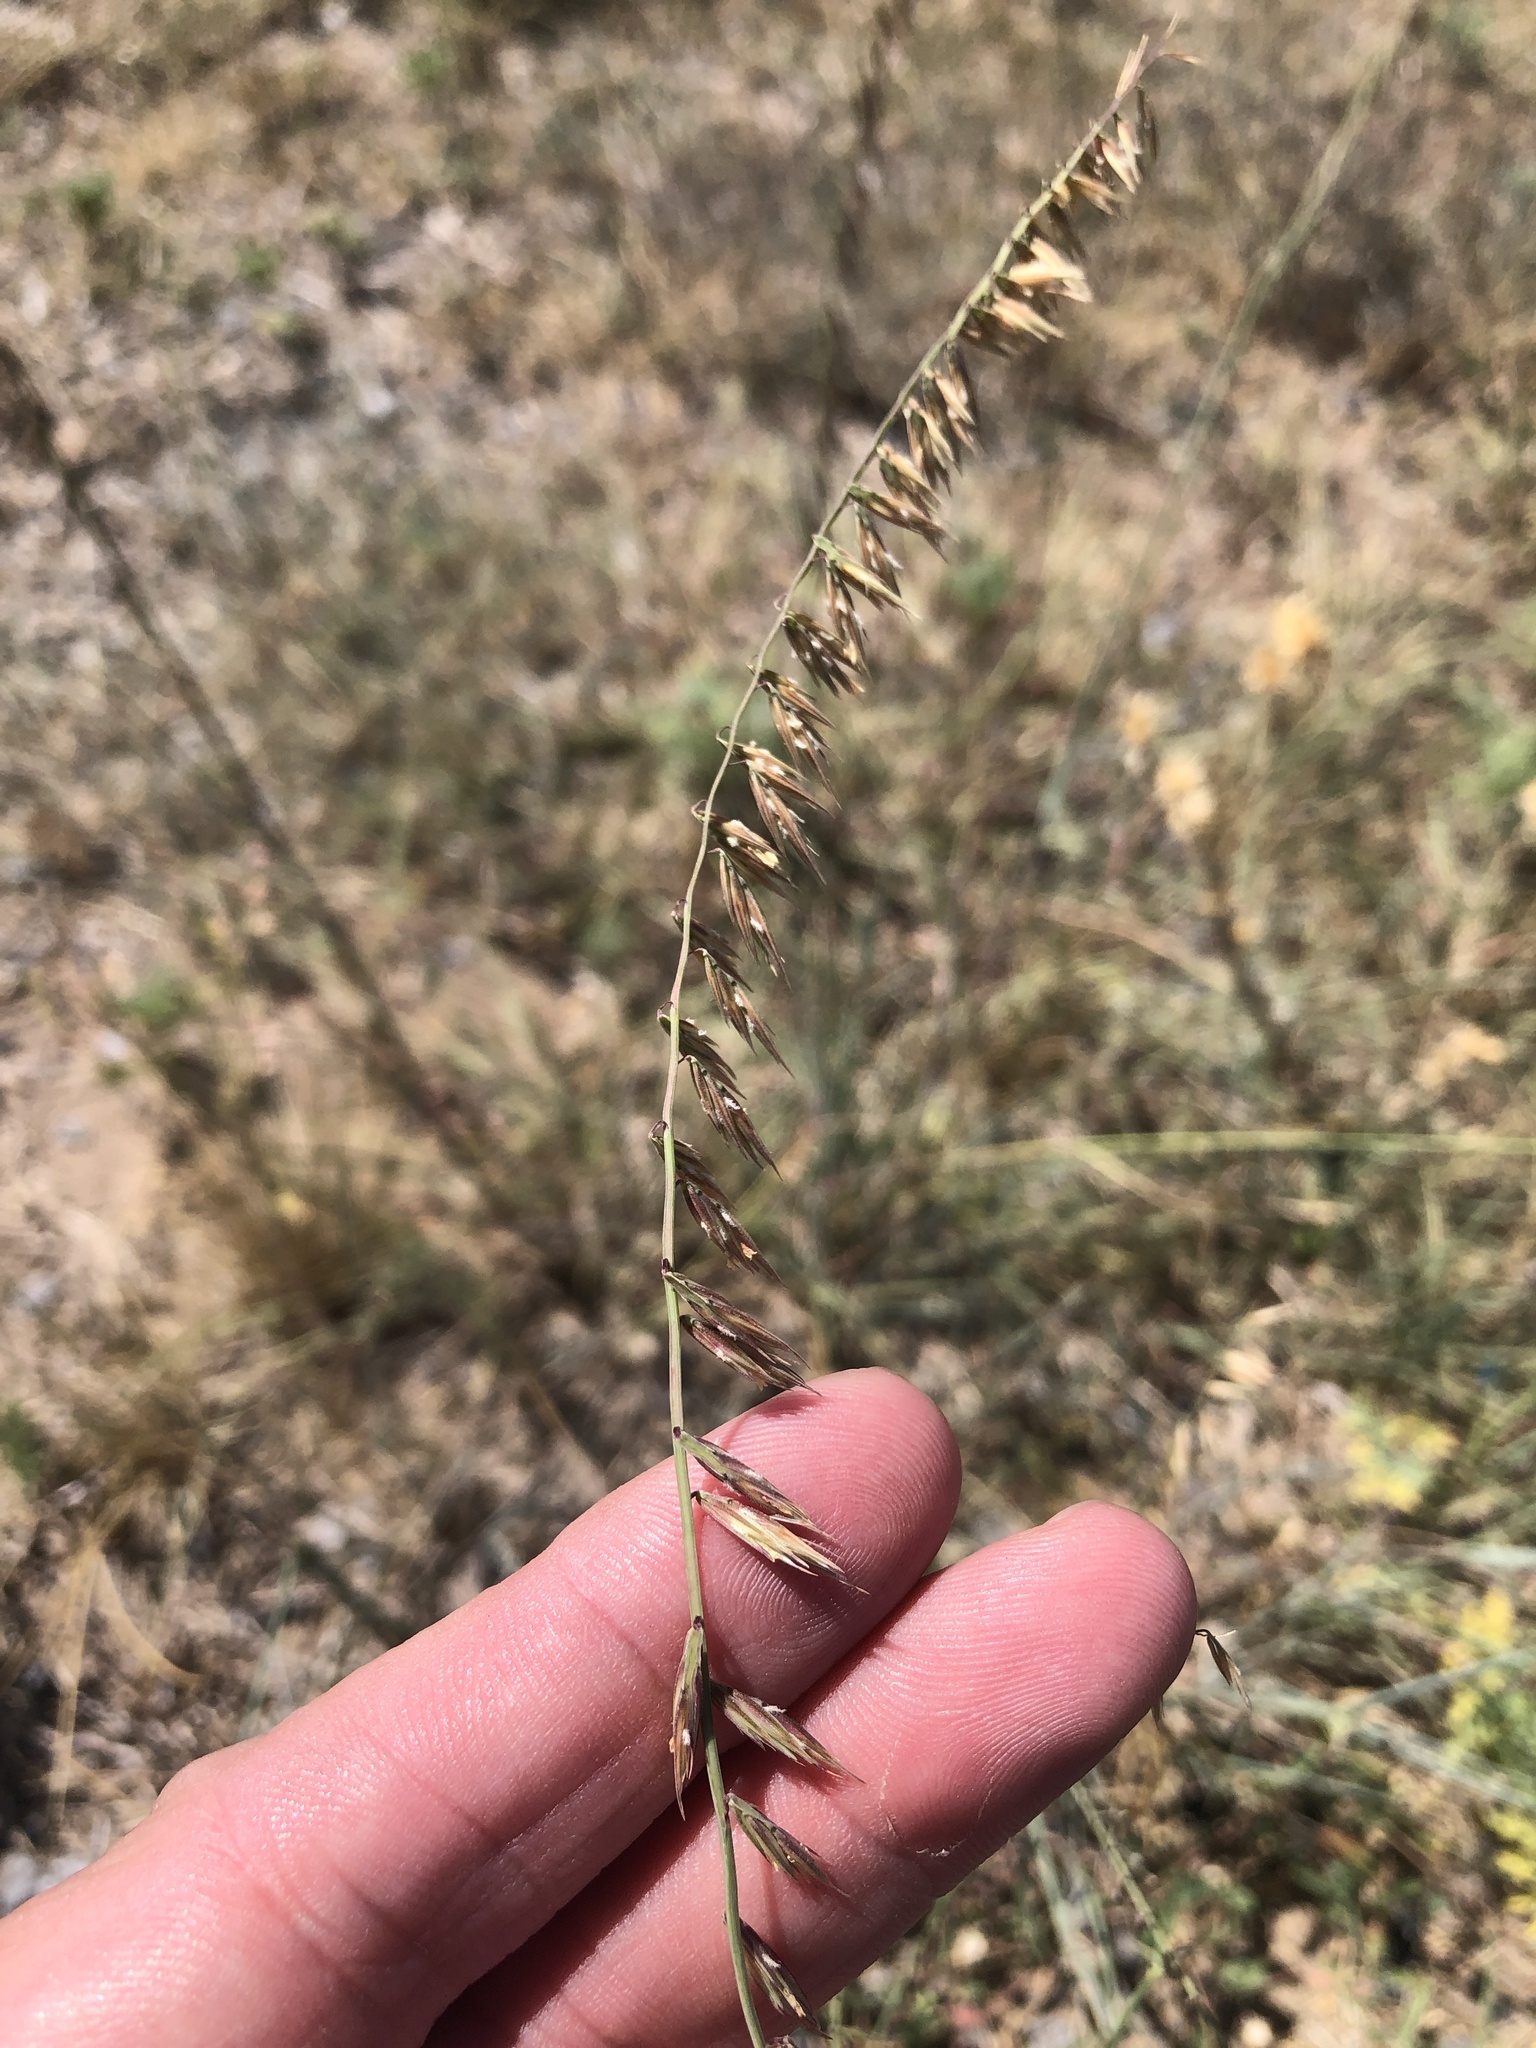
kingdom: Plantae
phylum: Tracheophyta
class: Liliopsida
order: Poales
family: Poaceae
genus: Bouteloua
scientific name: Bouteloua curtipendula
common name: Side-oats grama
